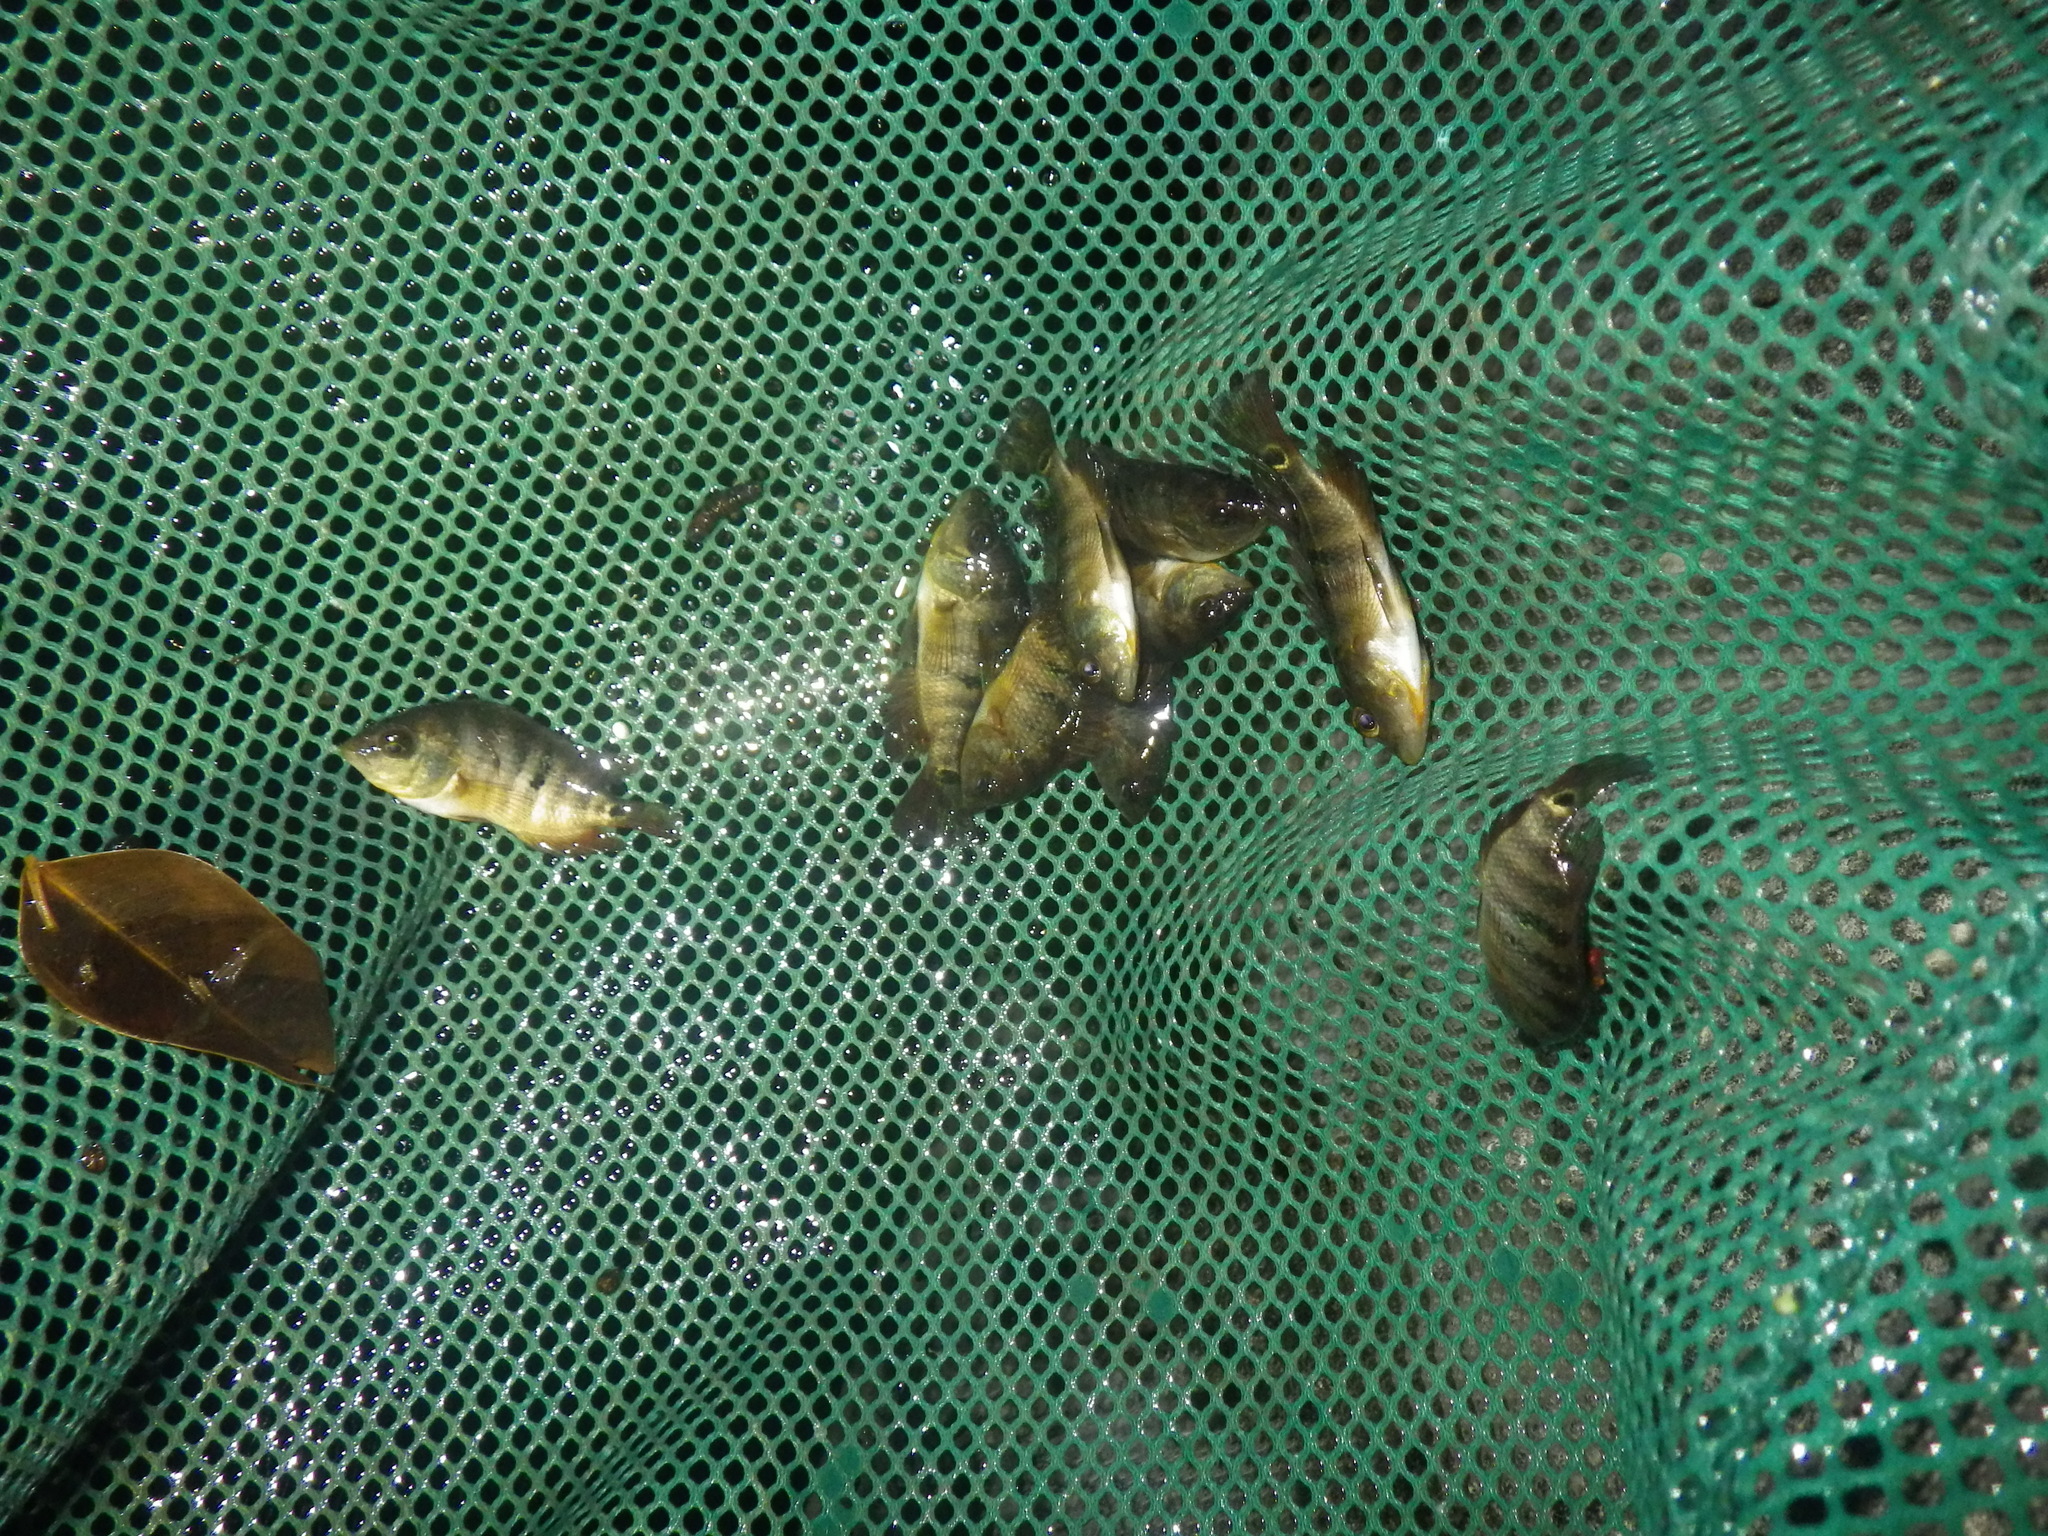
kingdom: Animalia
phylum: Chordata
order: Perciformes
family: Cichlidae
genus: Mayaheros
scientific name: Mayaheros urophthalmus
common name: Mayan cichlid
